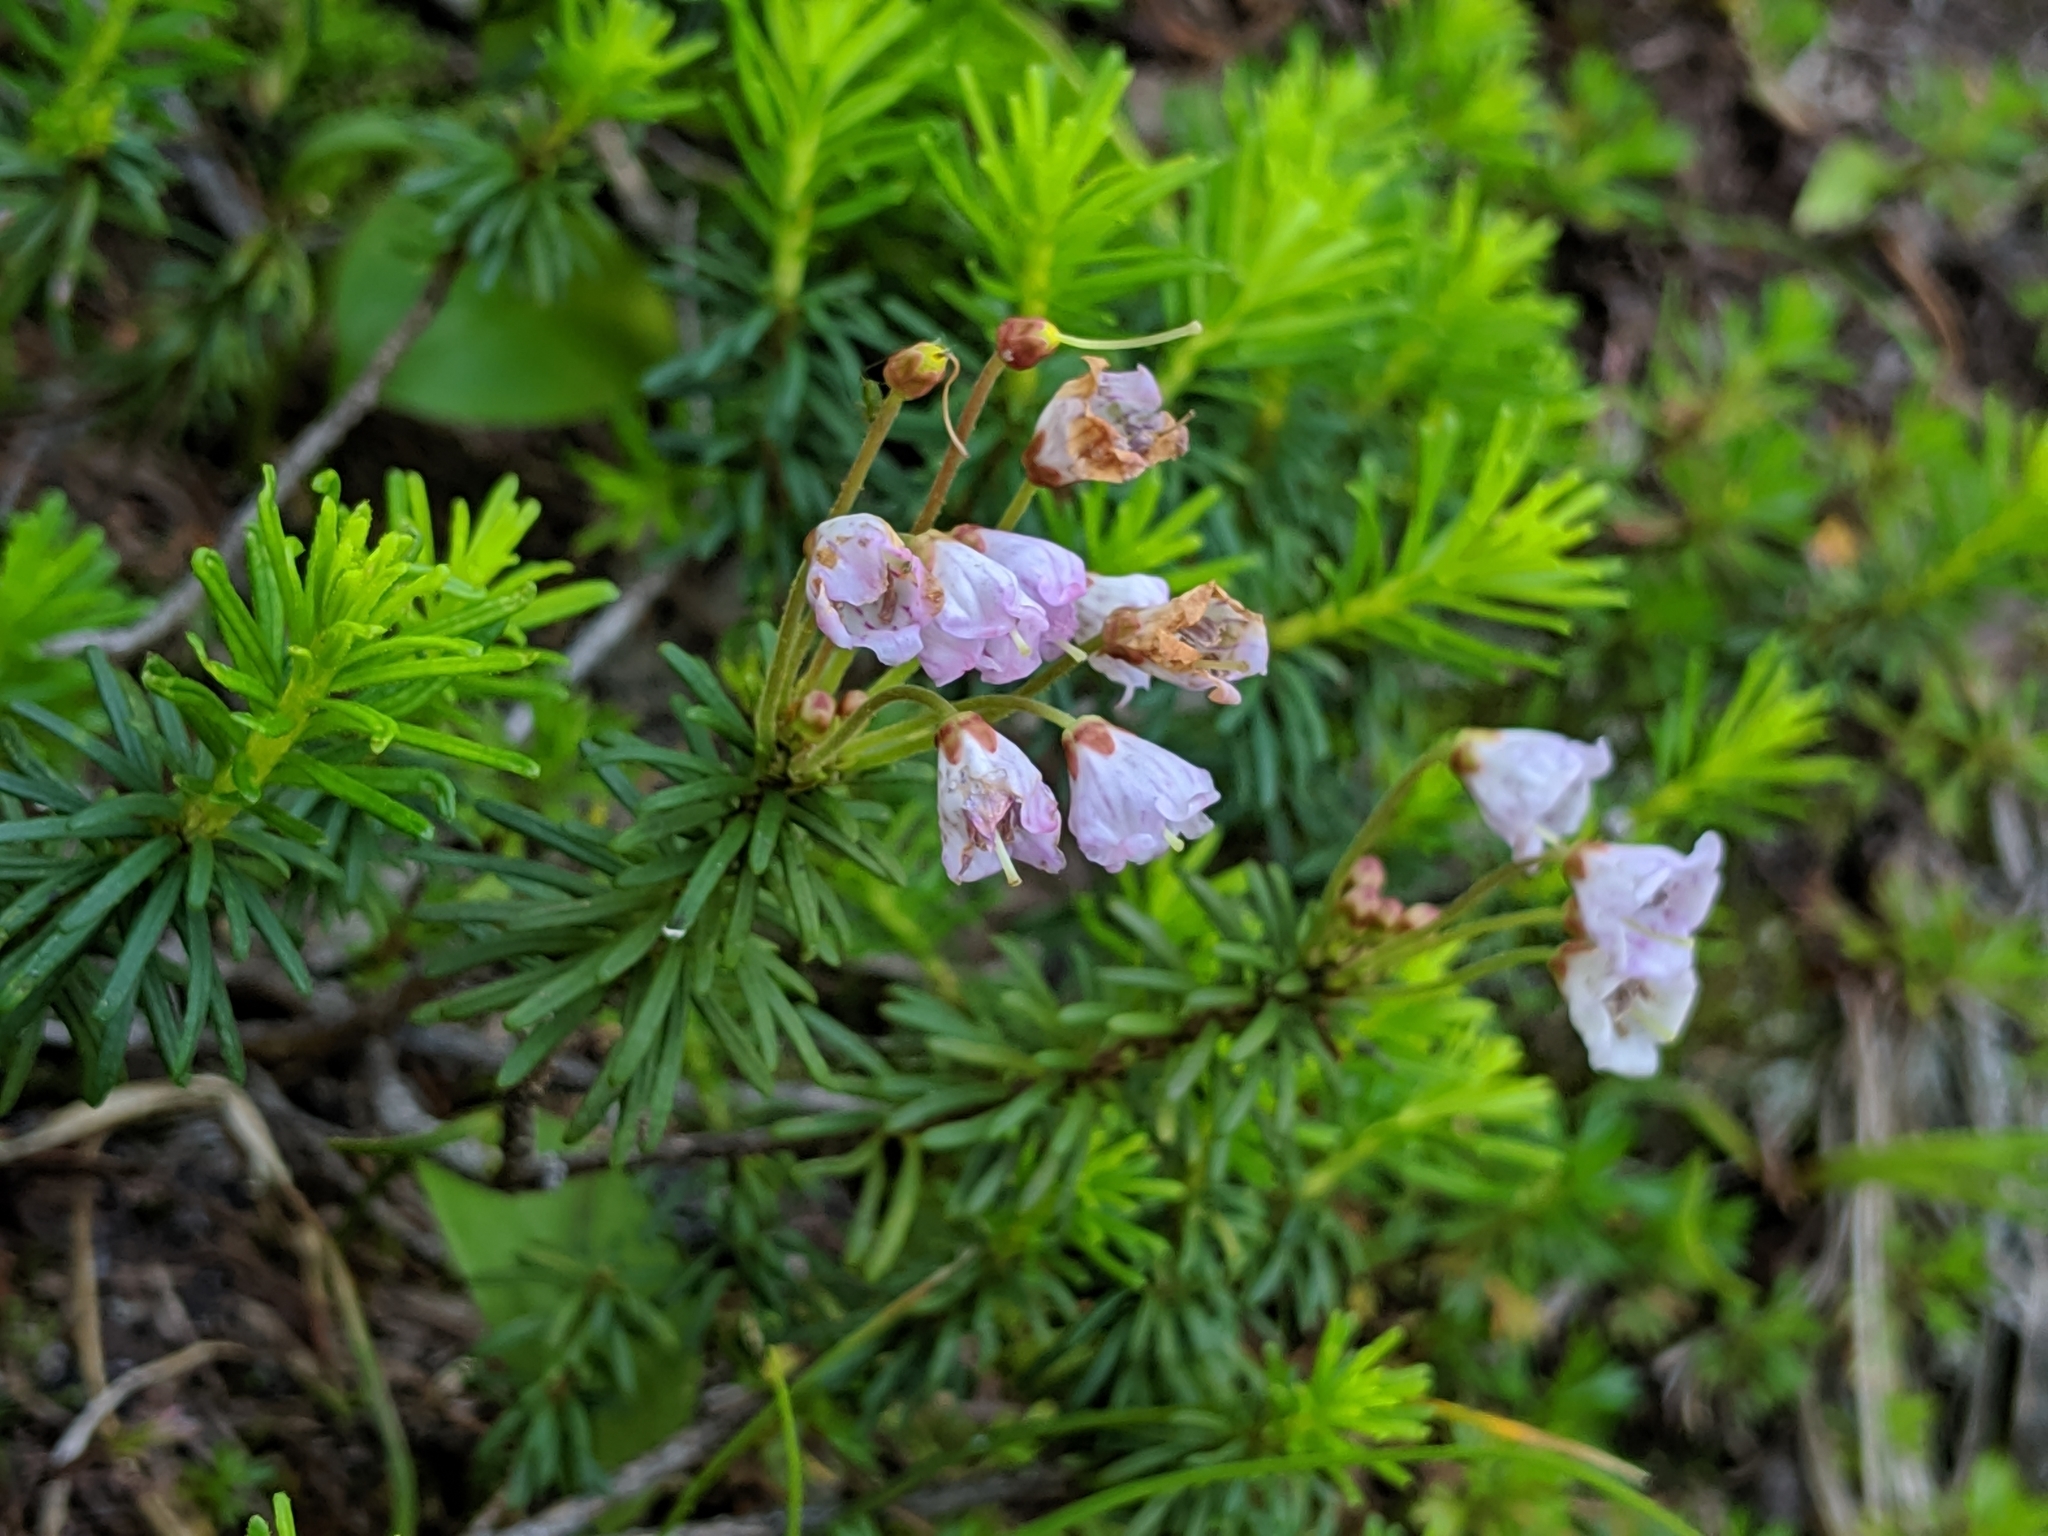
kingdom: Plantae
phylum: Tracheophyta
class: Magnoliopsida
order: Ericales
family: Ericaceae
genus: Phyllodoce
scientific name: Phyllodoce empetriformis
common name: Pink mountain heather
